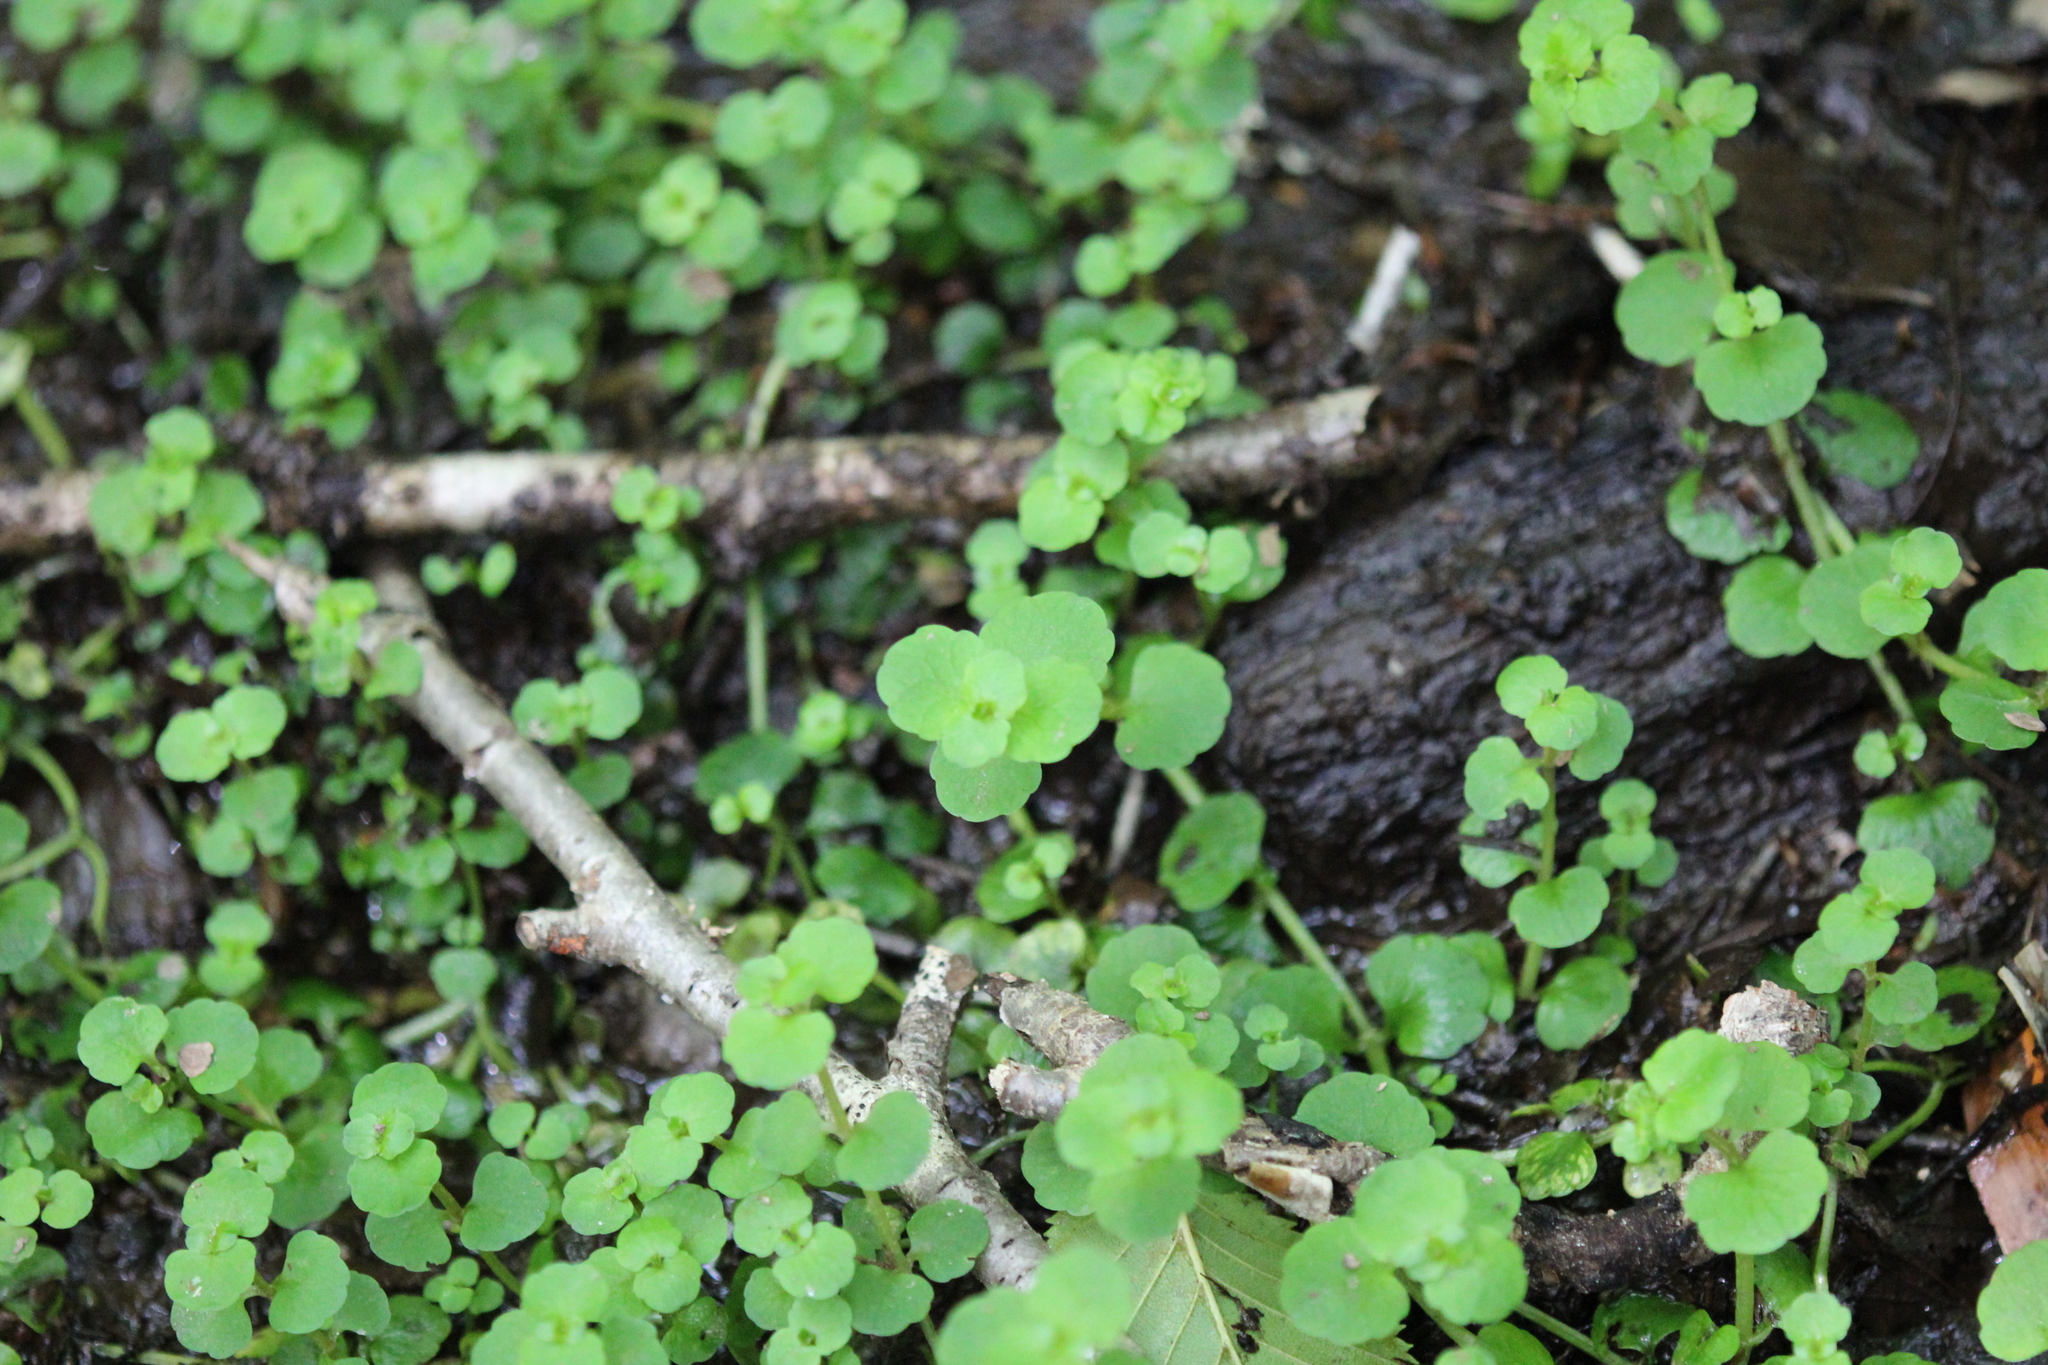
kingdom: Plantae
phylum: Tracheophyta
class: Magnoliopsida
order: Saxifragales
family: Saxifragaceae
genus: Chrysosplenium
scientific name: Chrysosplenium americanum
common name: American golden-saxifrage
